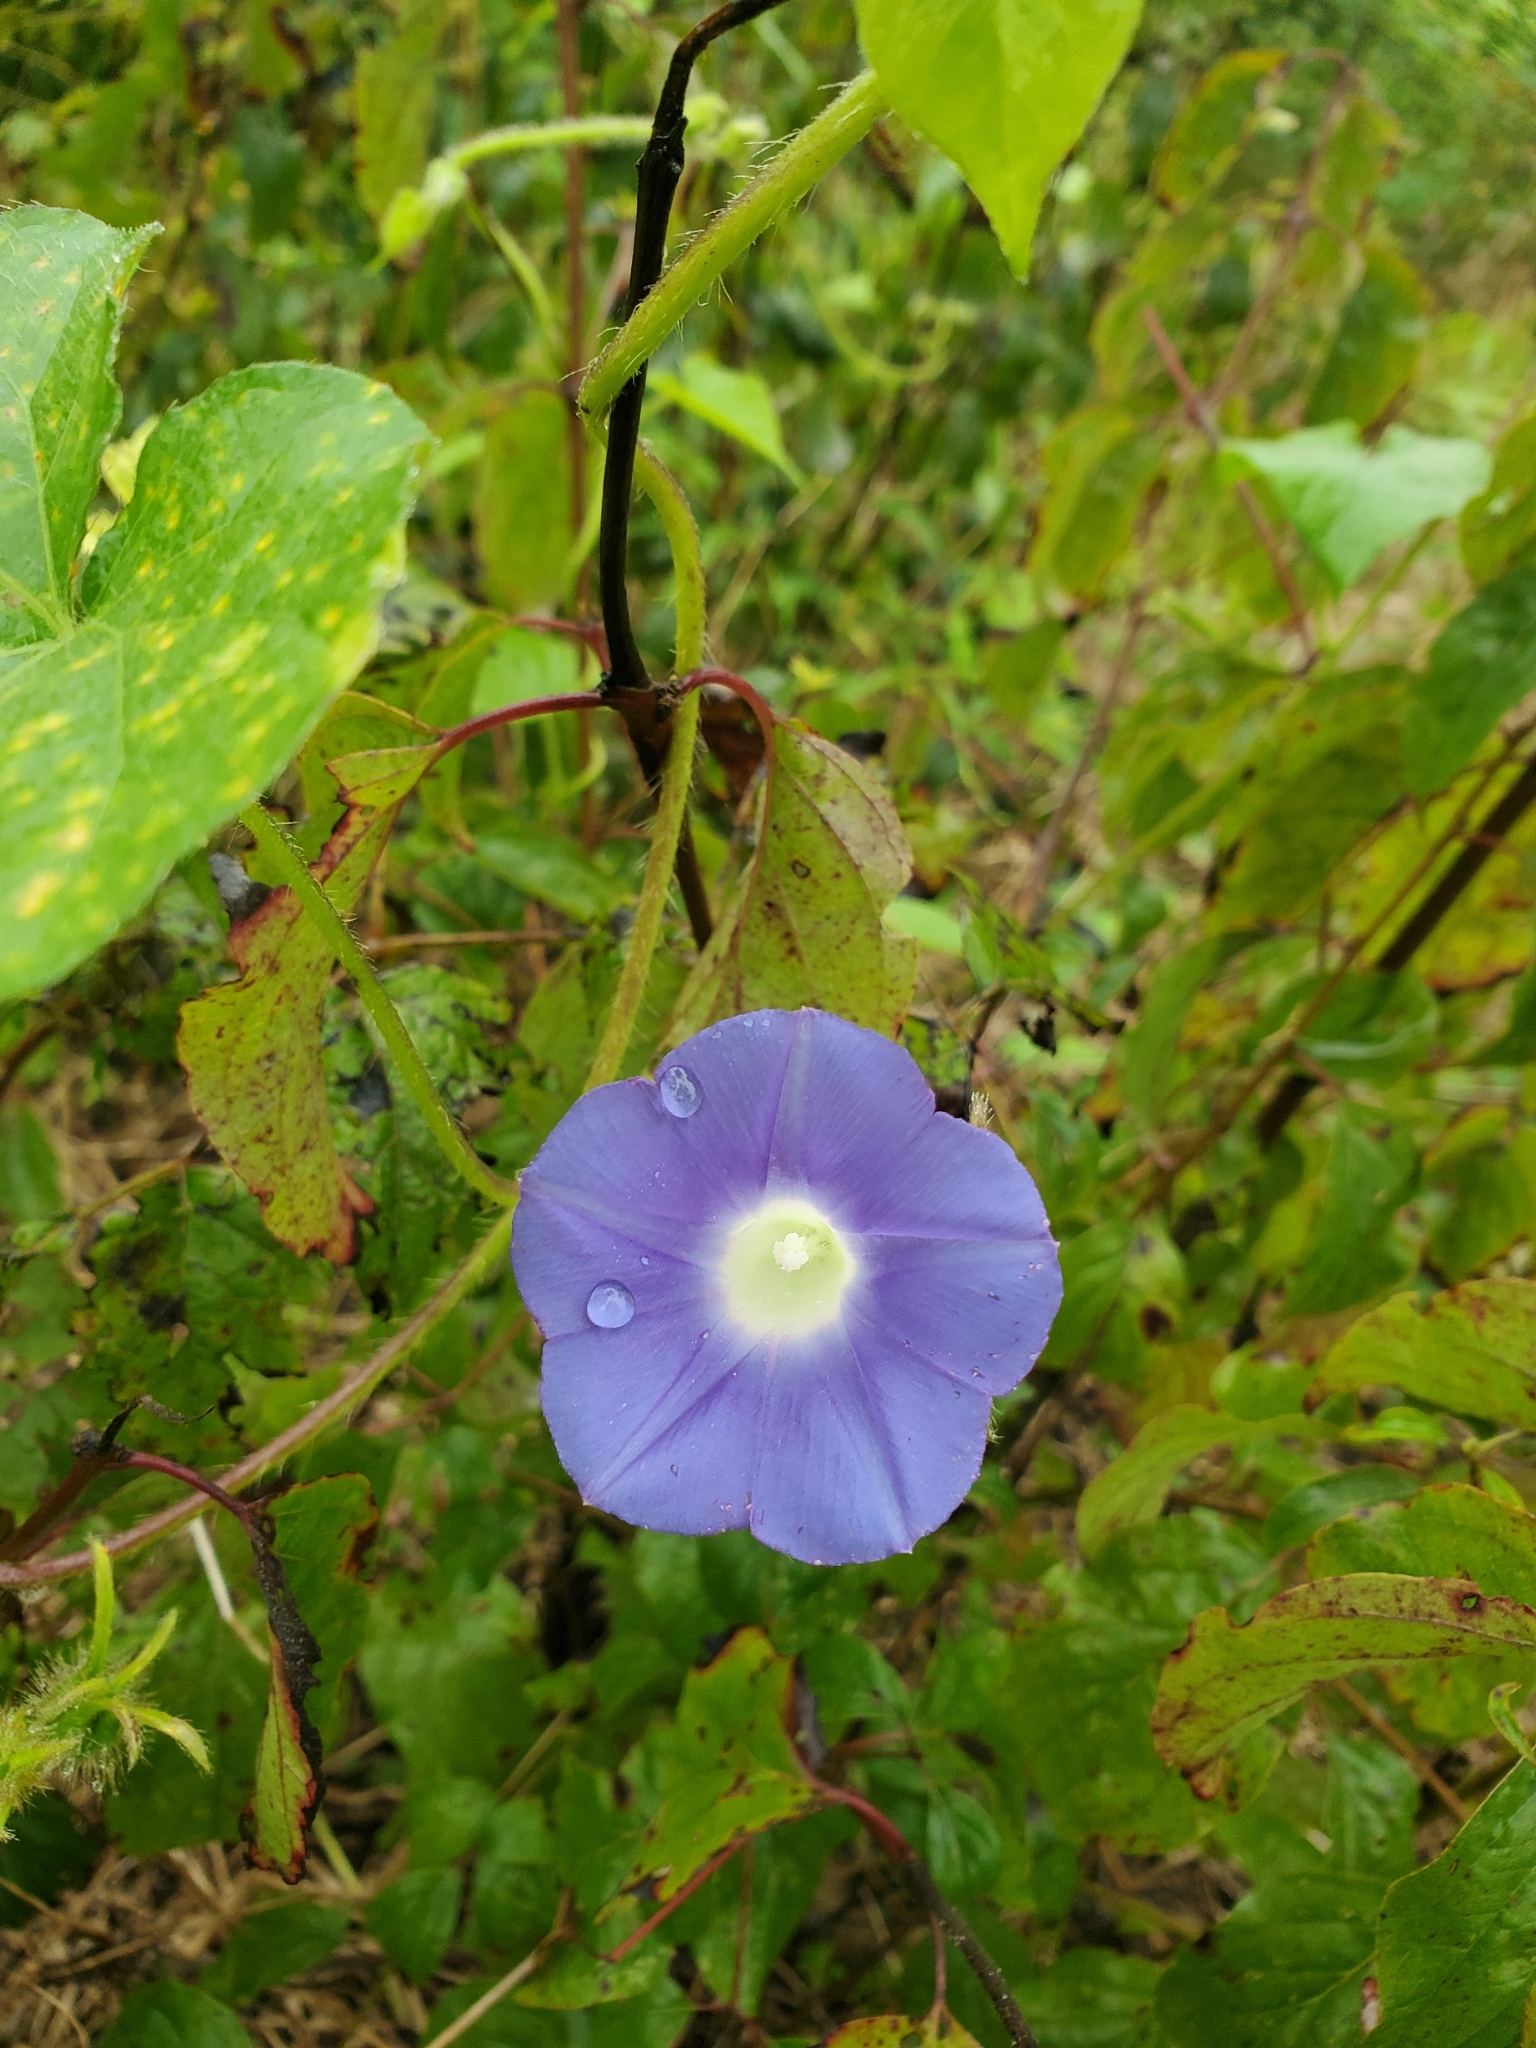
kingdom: Plantae
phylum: Tracheophyta
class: Magnoliopsida
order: Solanales
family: Convolvulaceae
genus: Ipomoea
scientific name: Ipomoea hederacea
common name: Ivy-leaved morning-glory
